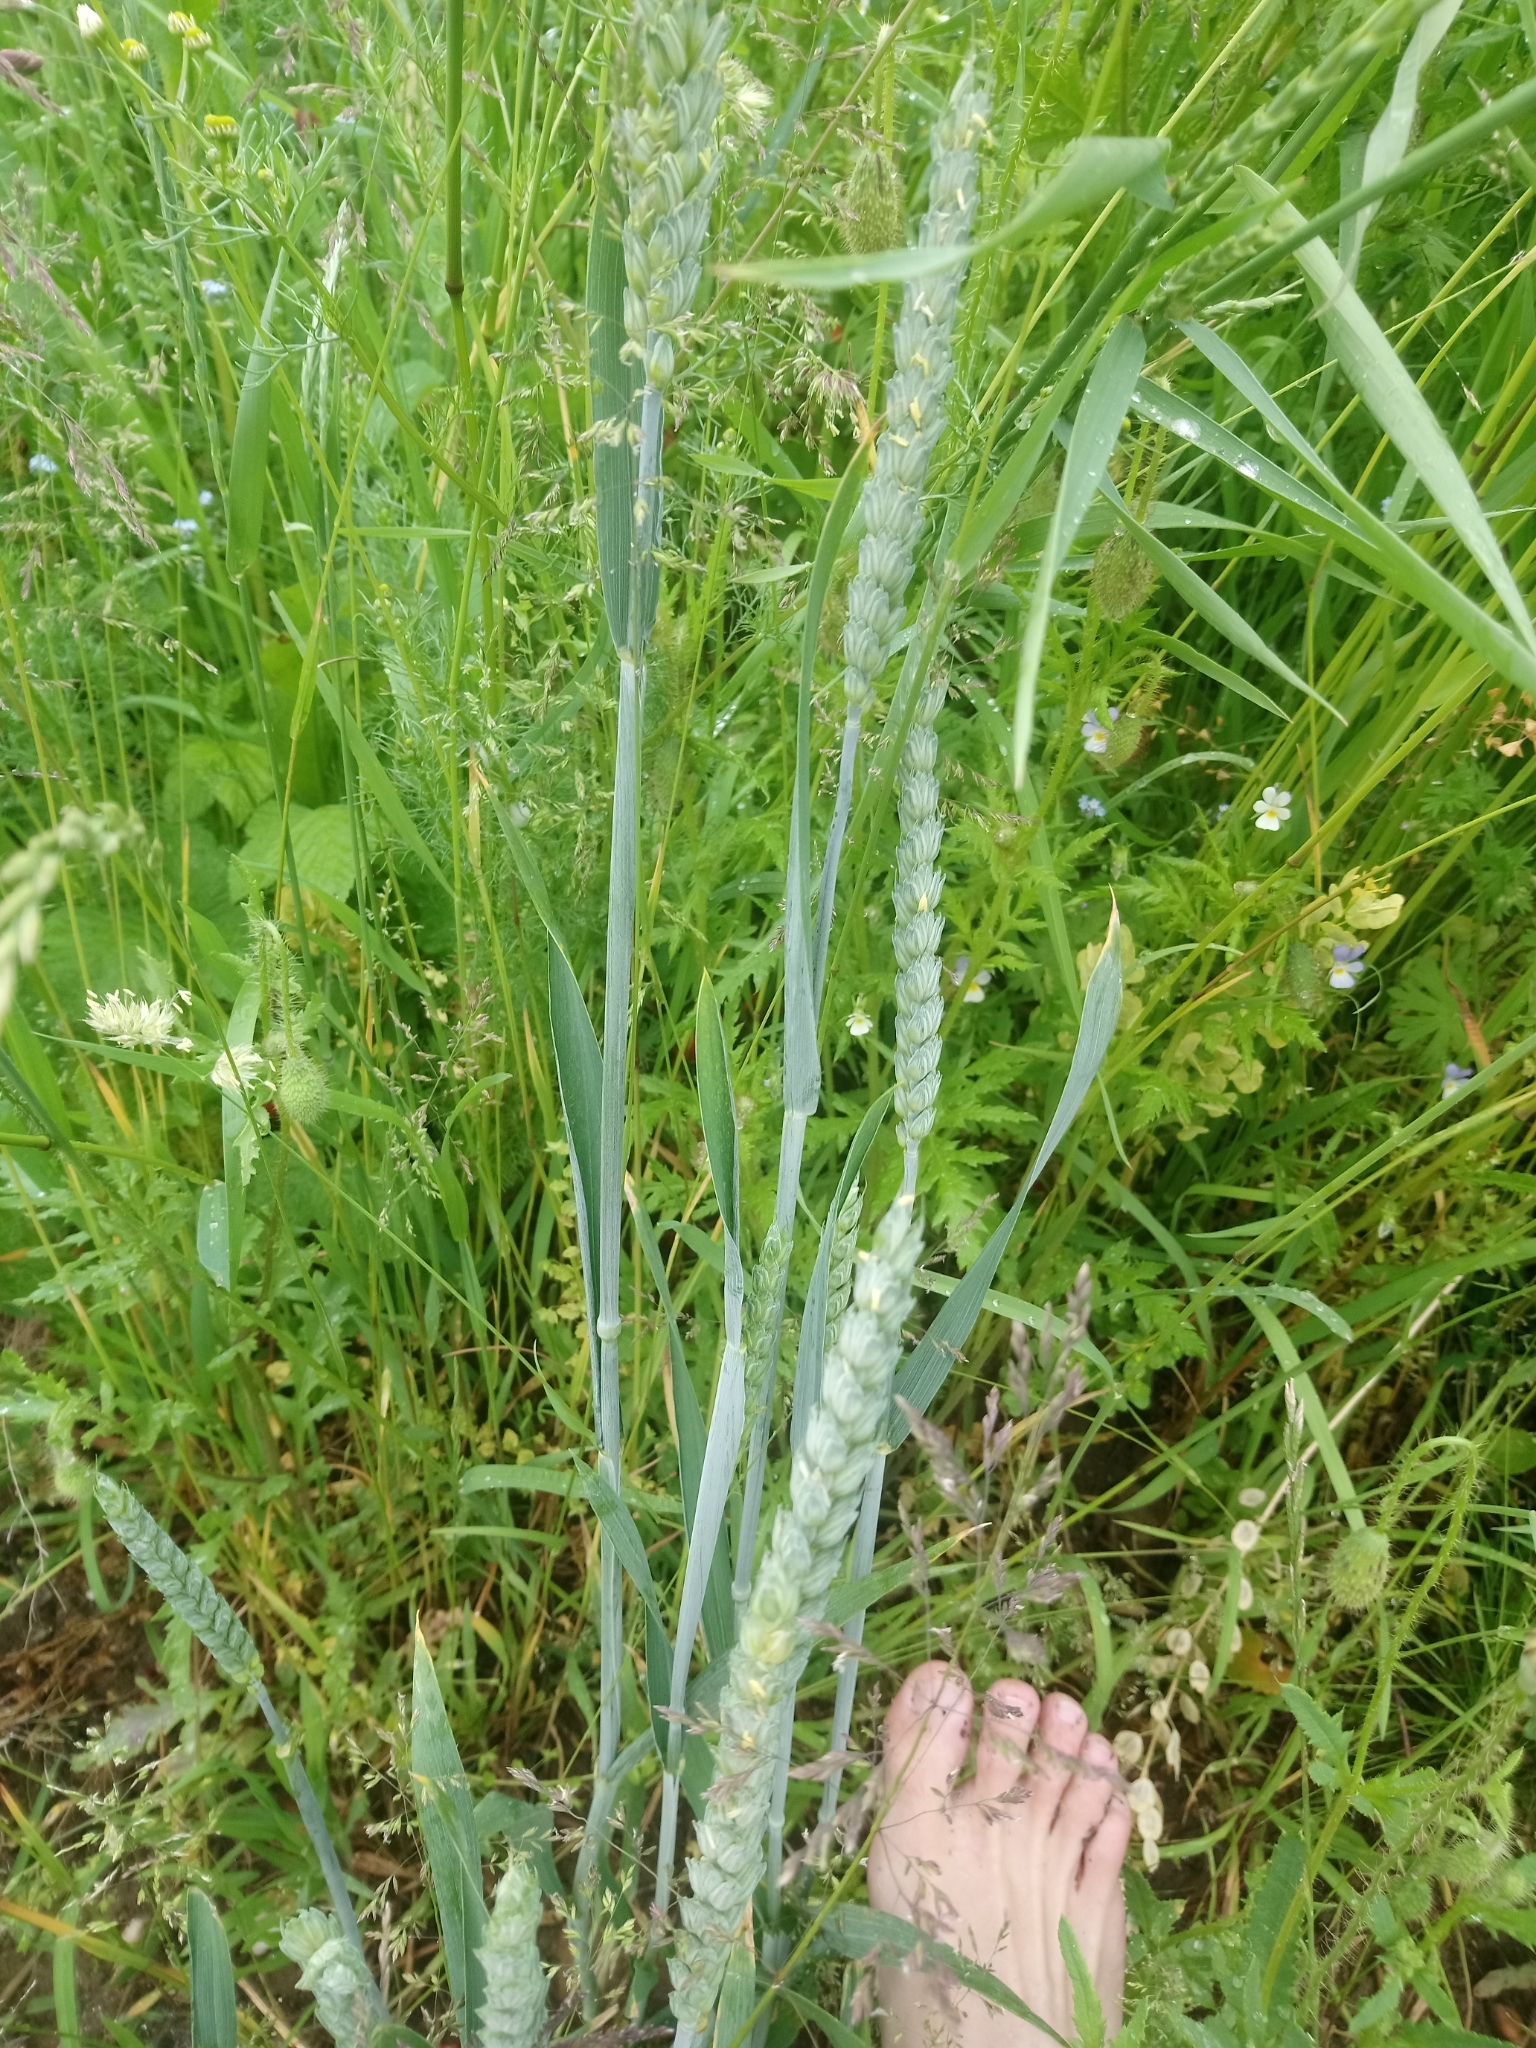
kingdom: Plantae
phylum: Tracheophyta
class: Liliopsida
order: Poales
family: Poaceae
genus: Triticum
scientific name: Triticum aestivum
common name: Common wheat
